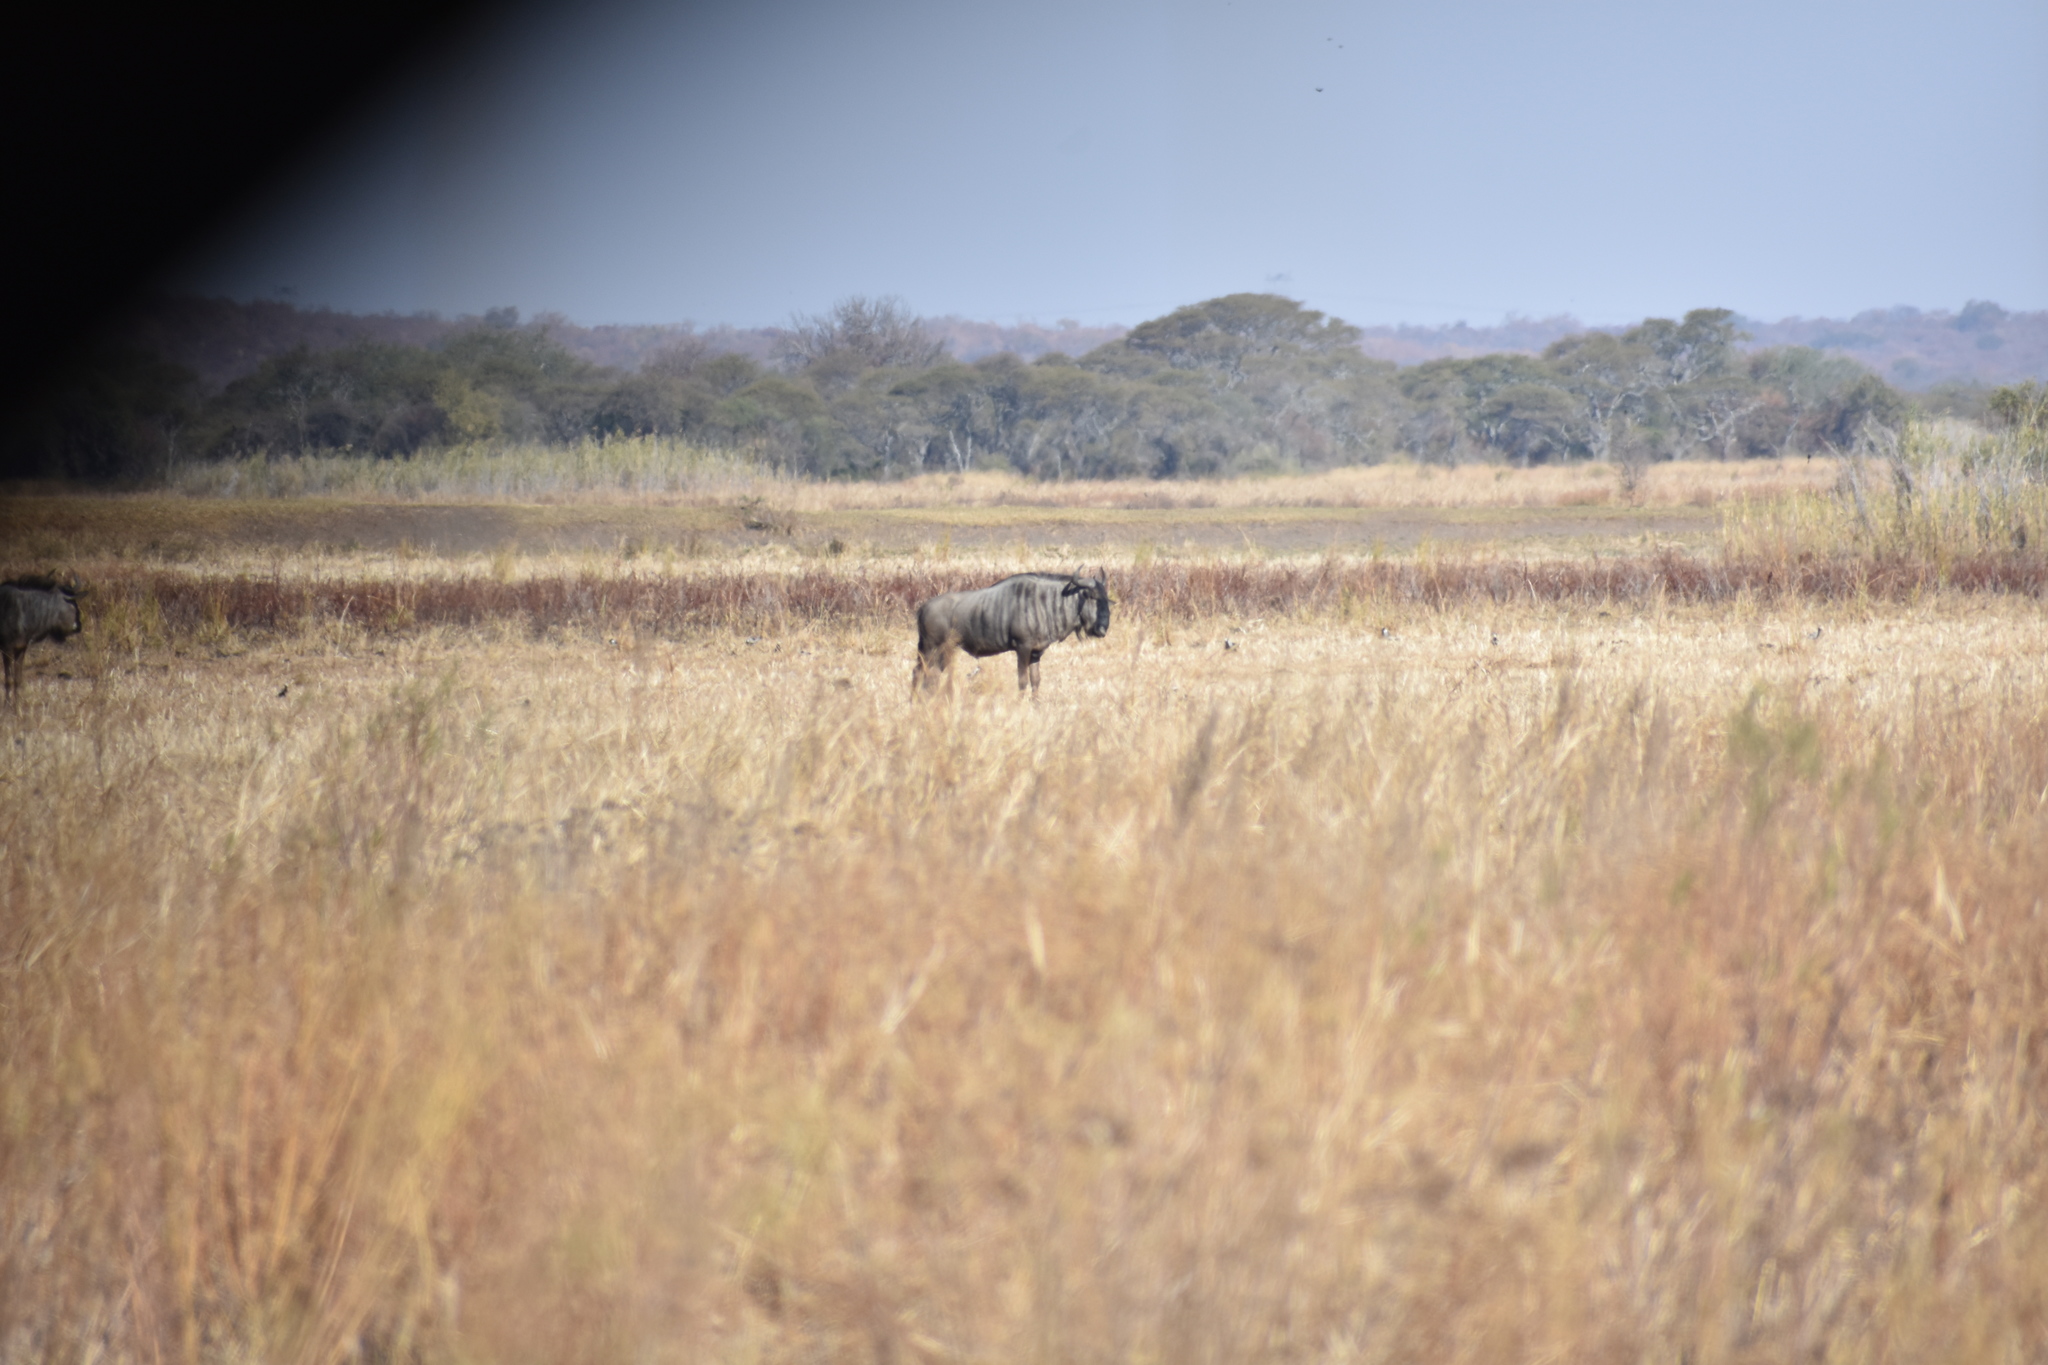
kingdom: Animalia
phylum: Chordata
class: Mammalia
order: Artiodactyla
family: Bovidae
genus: Connochaetes
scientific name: Connochaetes taurinus
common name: Blue wildebeest
